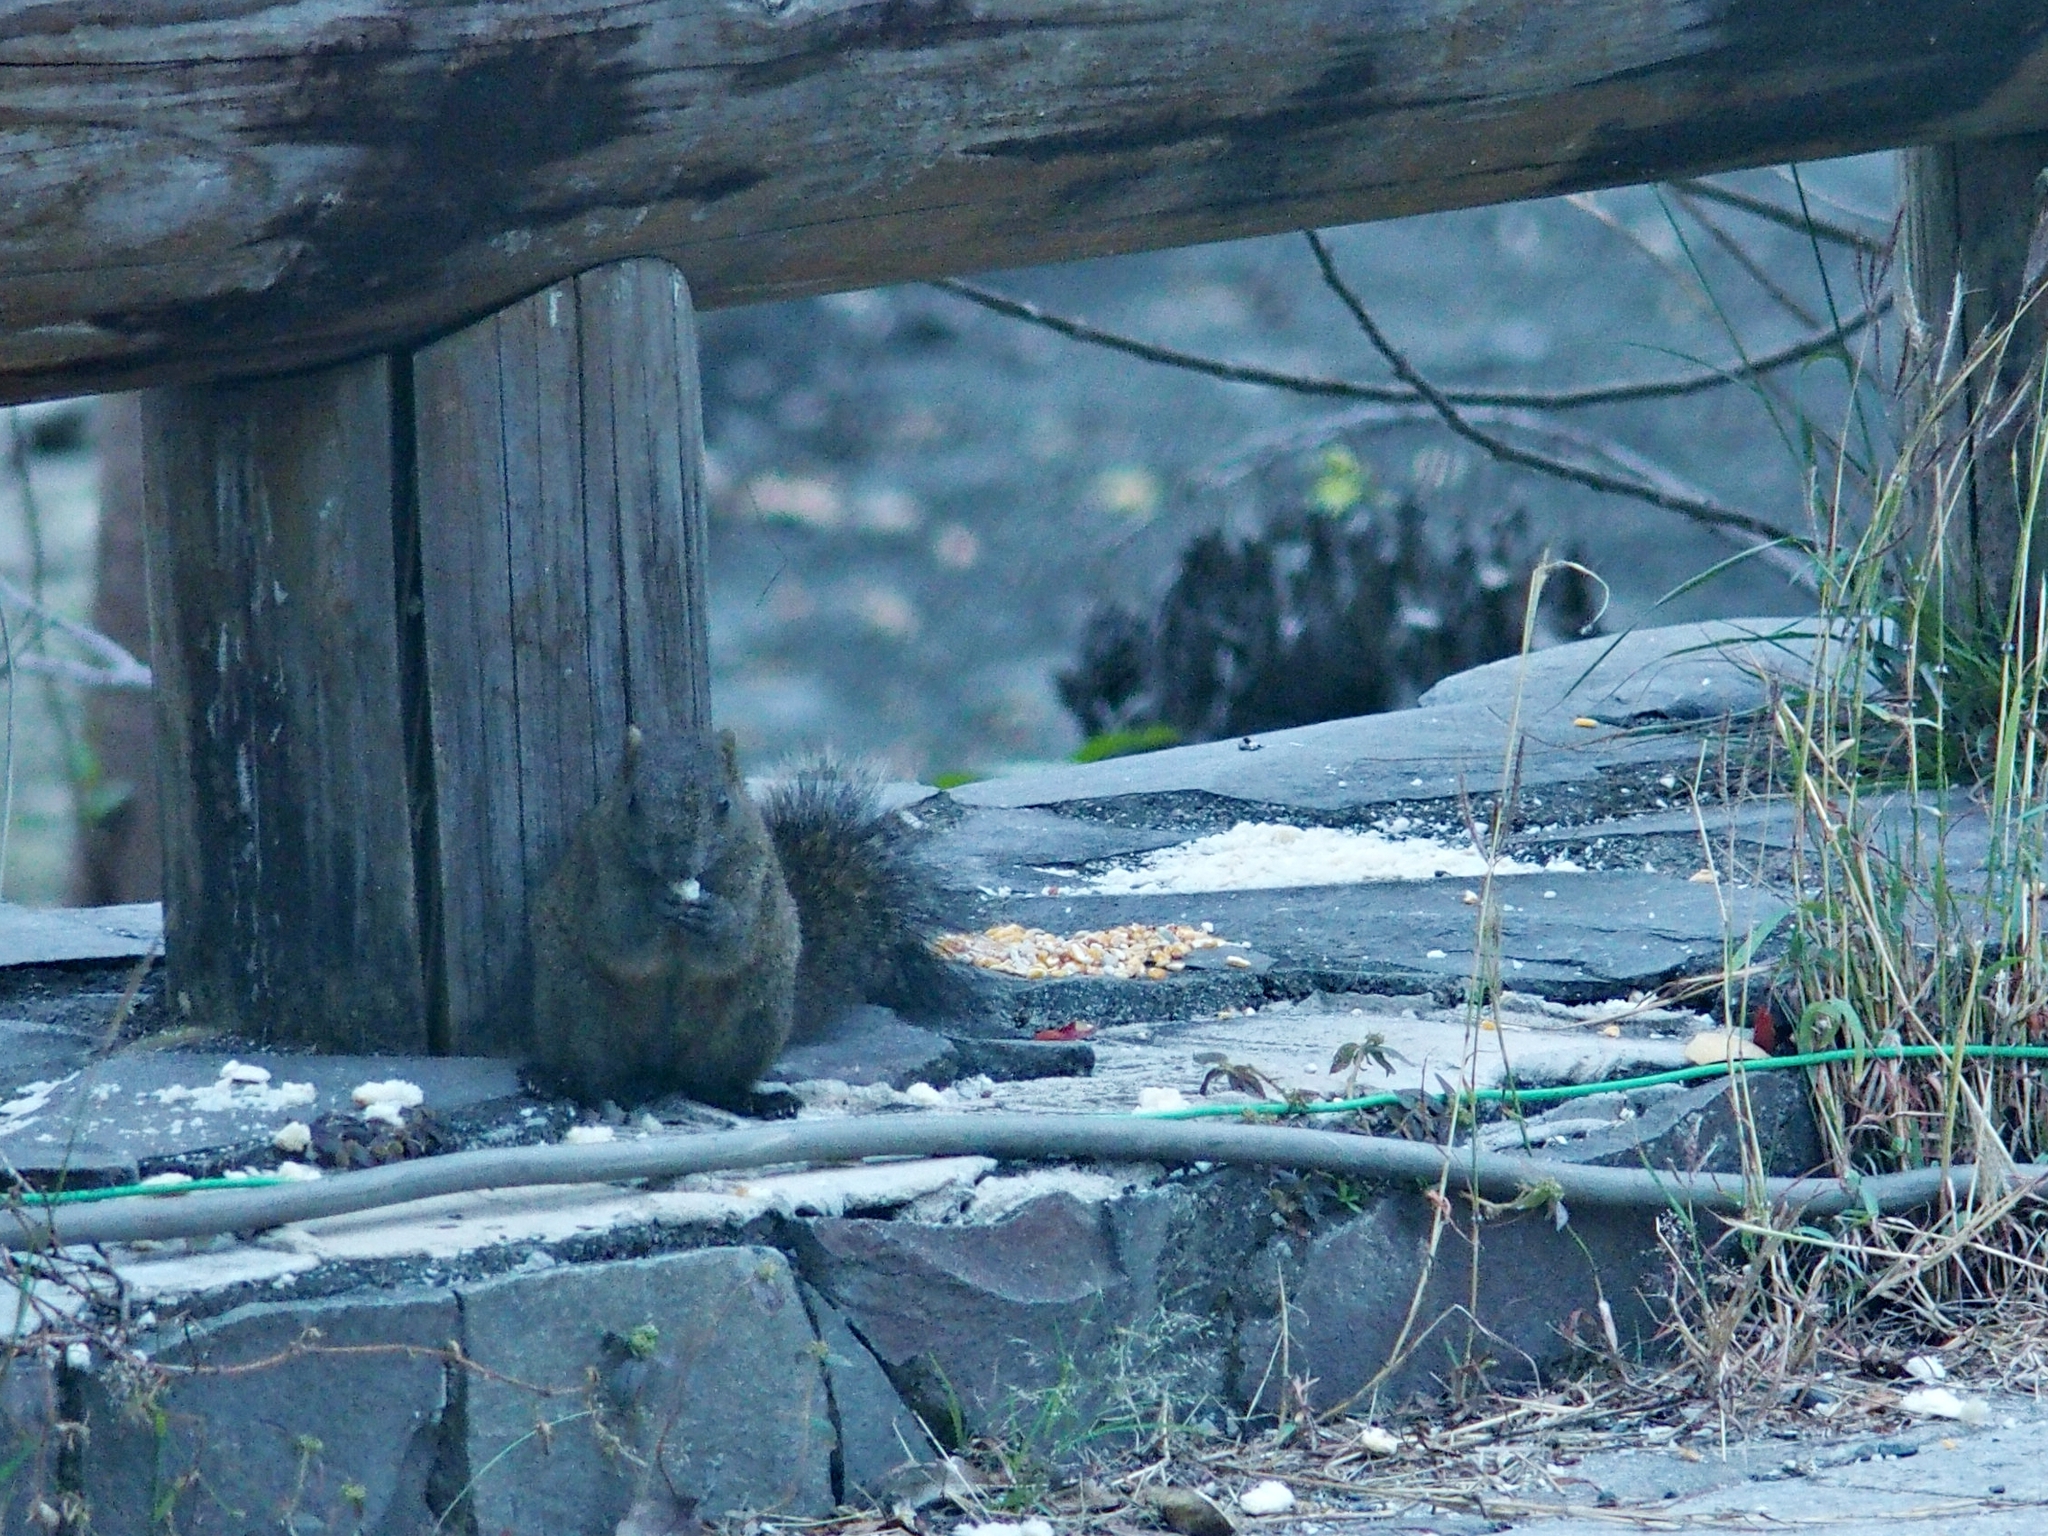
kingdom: Animalia
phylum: Chordata
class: Mammalia
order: Rodentia
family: Sciuridae
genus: Callosciurus
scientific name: Callosciurus erythraeus
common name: Pallas's squirrel
